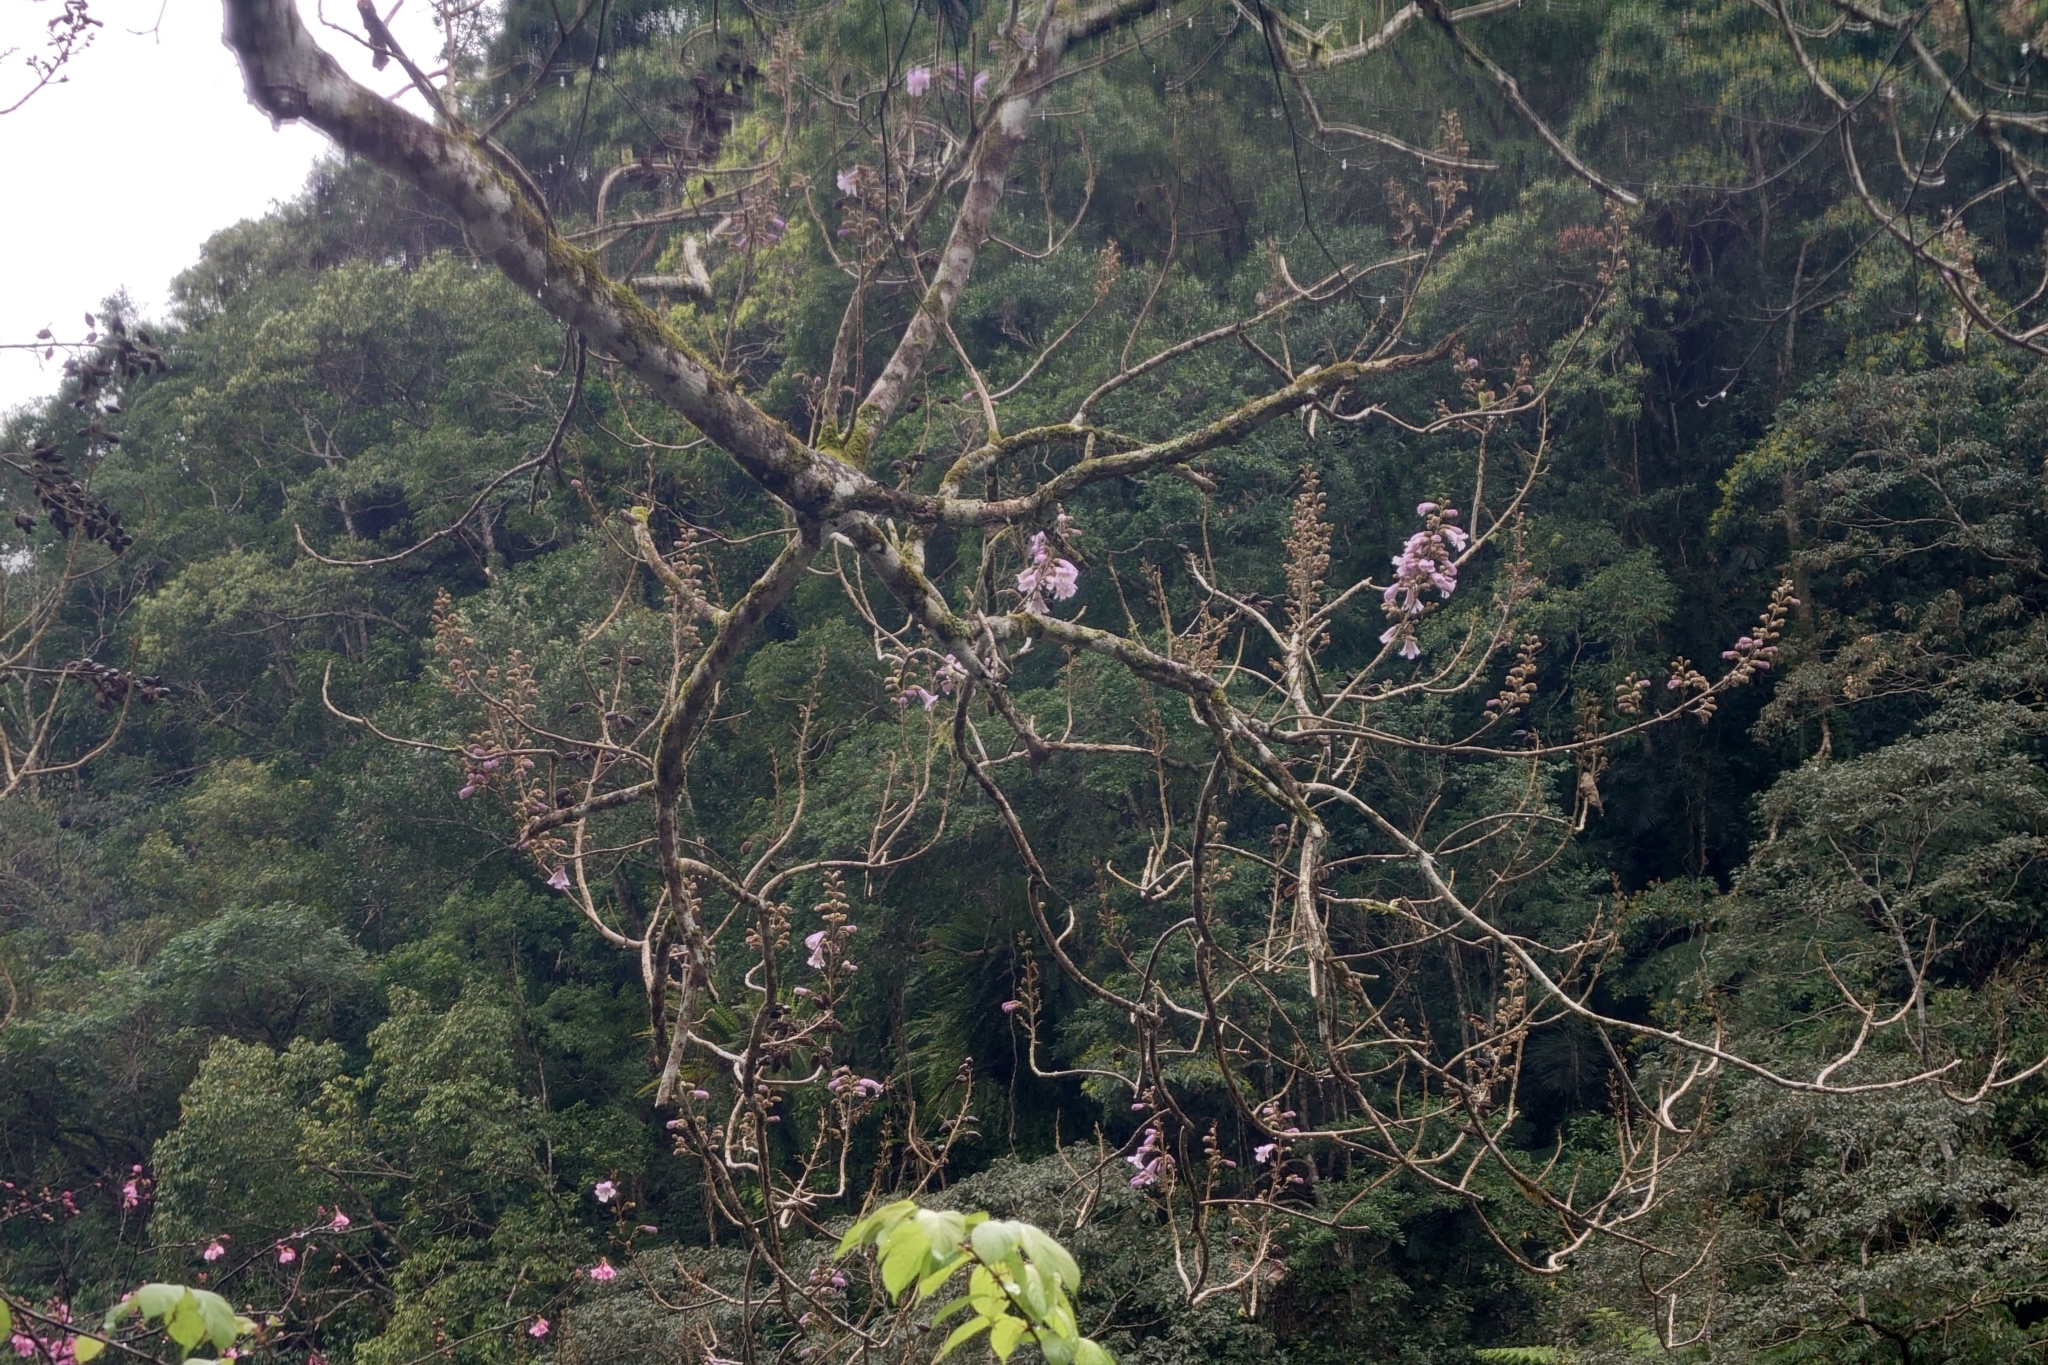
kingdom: Plantae
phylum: Tracheophyta
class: Magnoliopsida
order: Lamiales
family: Paulowniaceae
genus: Paulownia
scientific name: Paulownia taiwaniana
